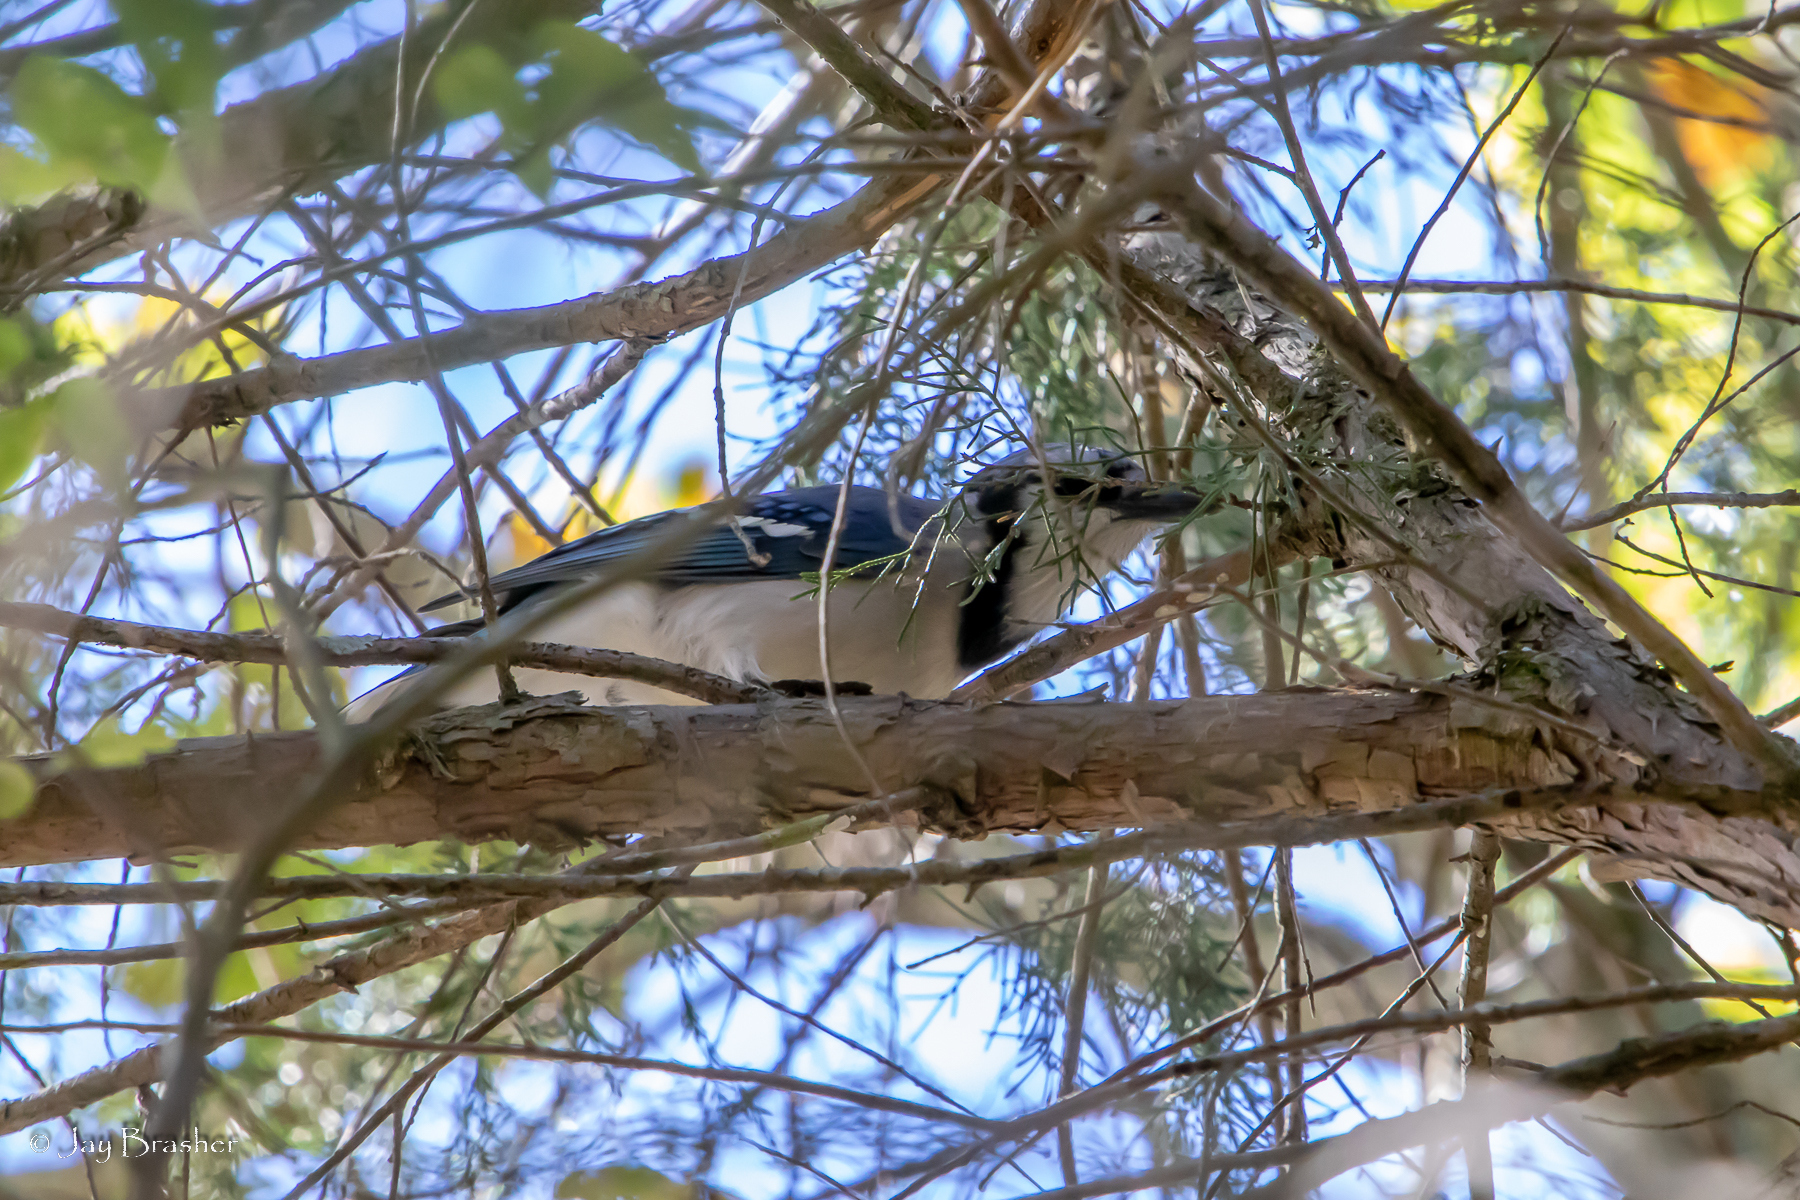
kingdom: Animalia
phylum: Chordata
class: Aves
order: Passeriformes
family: Corvidae
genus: Cyanocitta
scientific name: Cyanocitta cristata
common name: Blue jay
